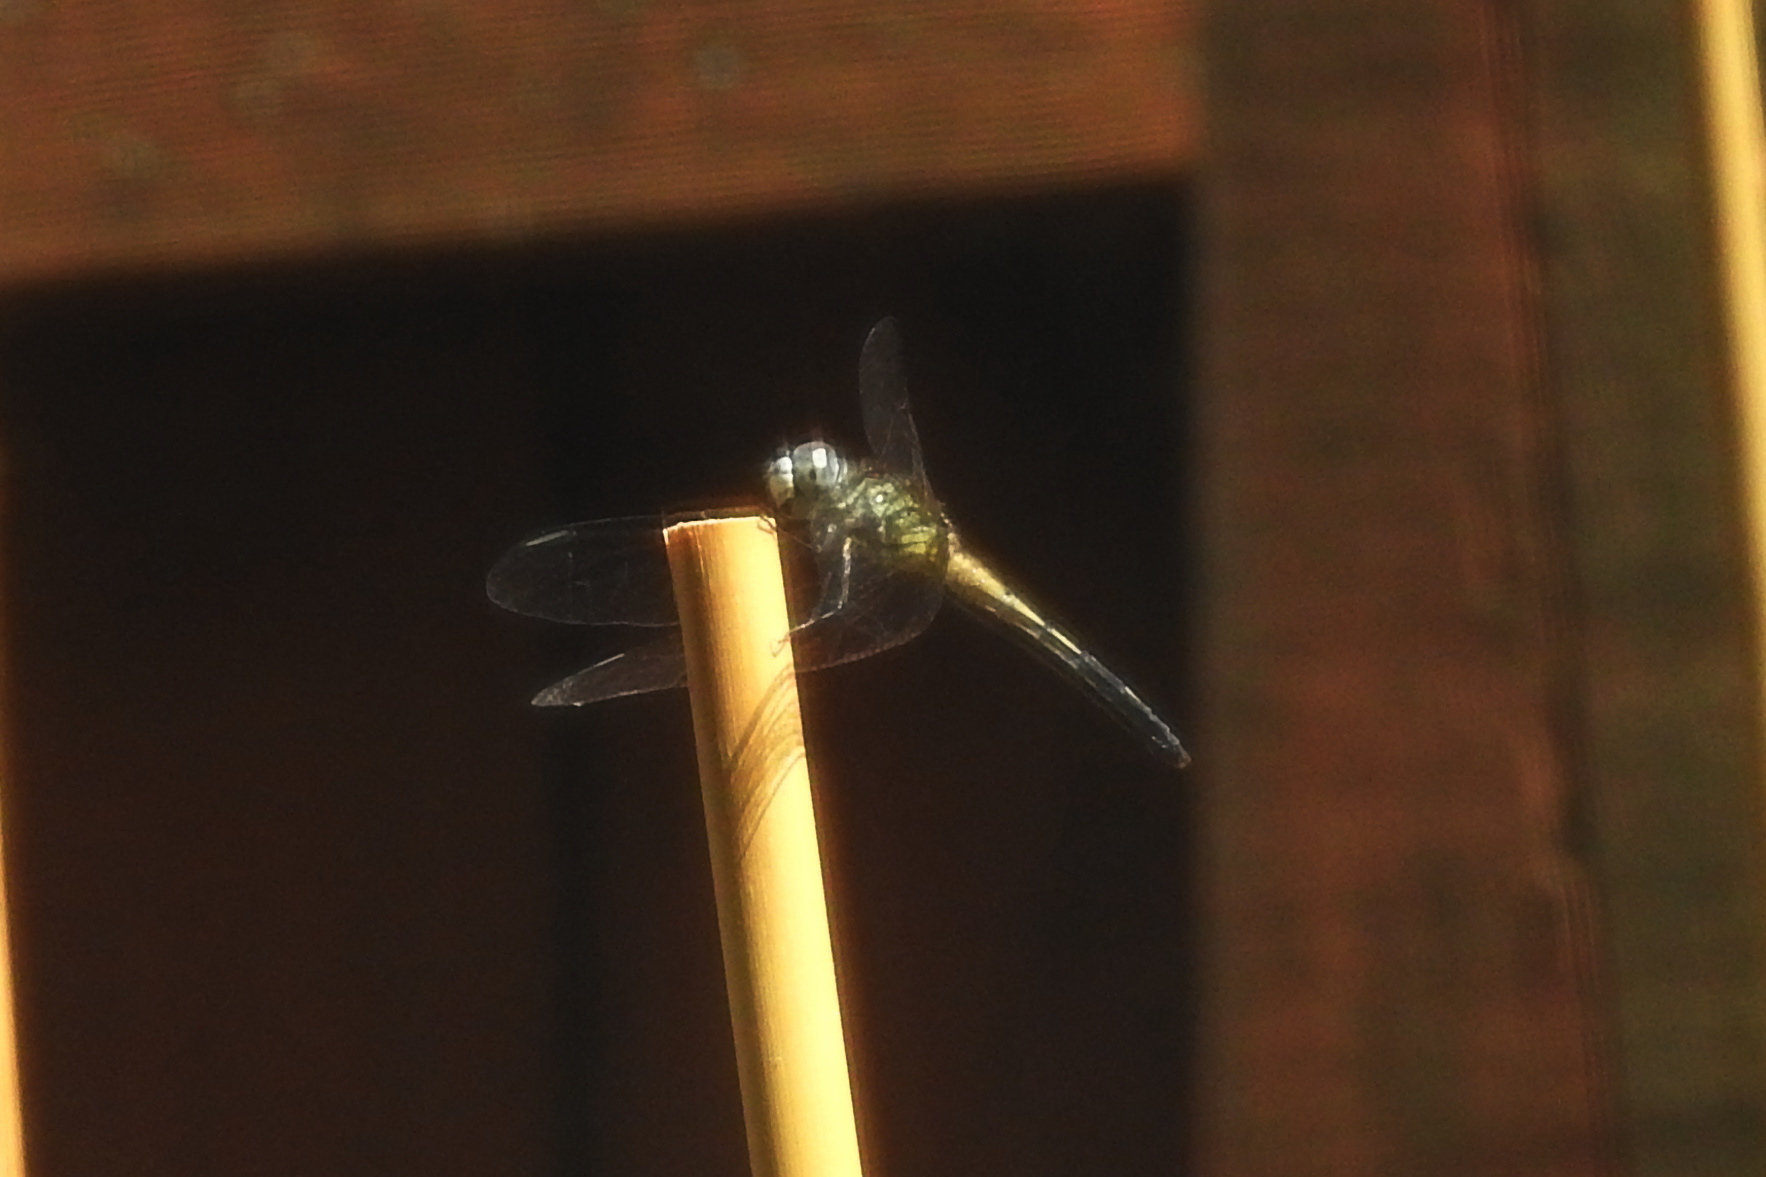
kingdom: Animalia
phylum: Arthropoda
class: Insecta
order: Odonata
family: Libellulidae
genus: Pachydiplax
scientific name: Pachydiplax longipennis
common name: Blue dasher
